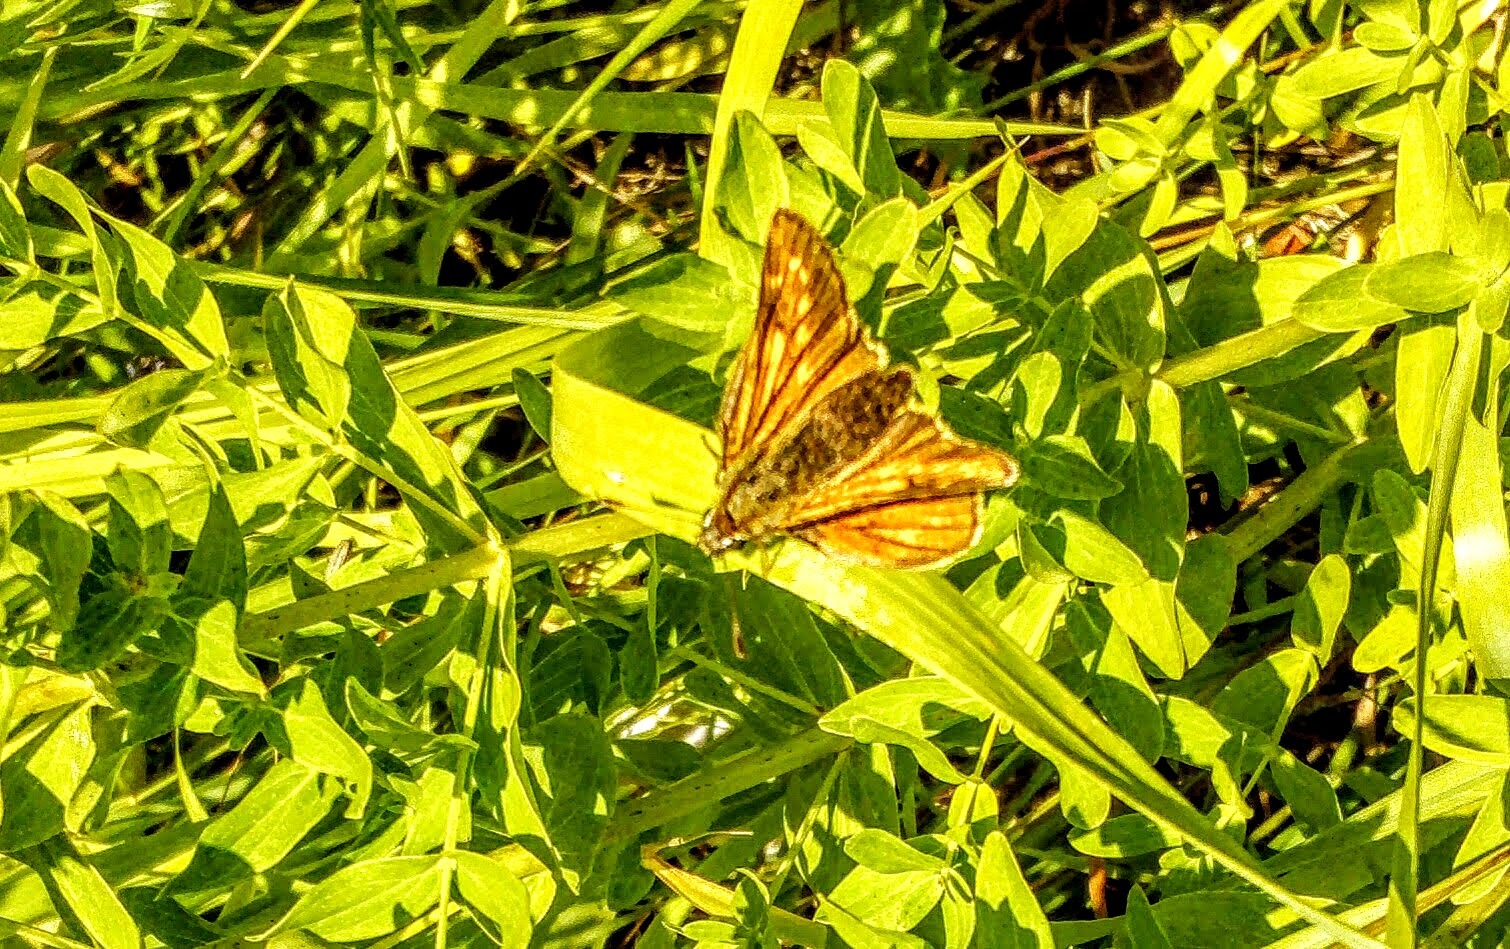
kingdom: Animalia
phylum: Arthropoda
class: Insecta
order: Lepidoptera
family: Hesperiidae
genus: Ochlodes
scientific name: Ochlodes venata
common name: Large skipper
